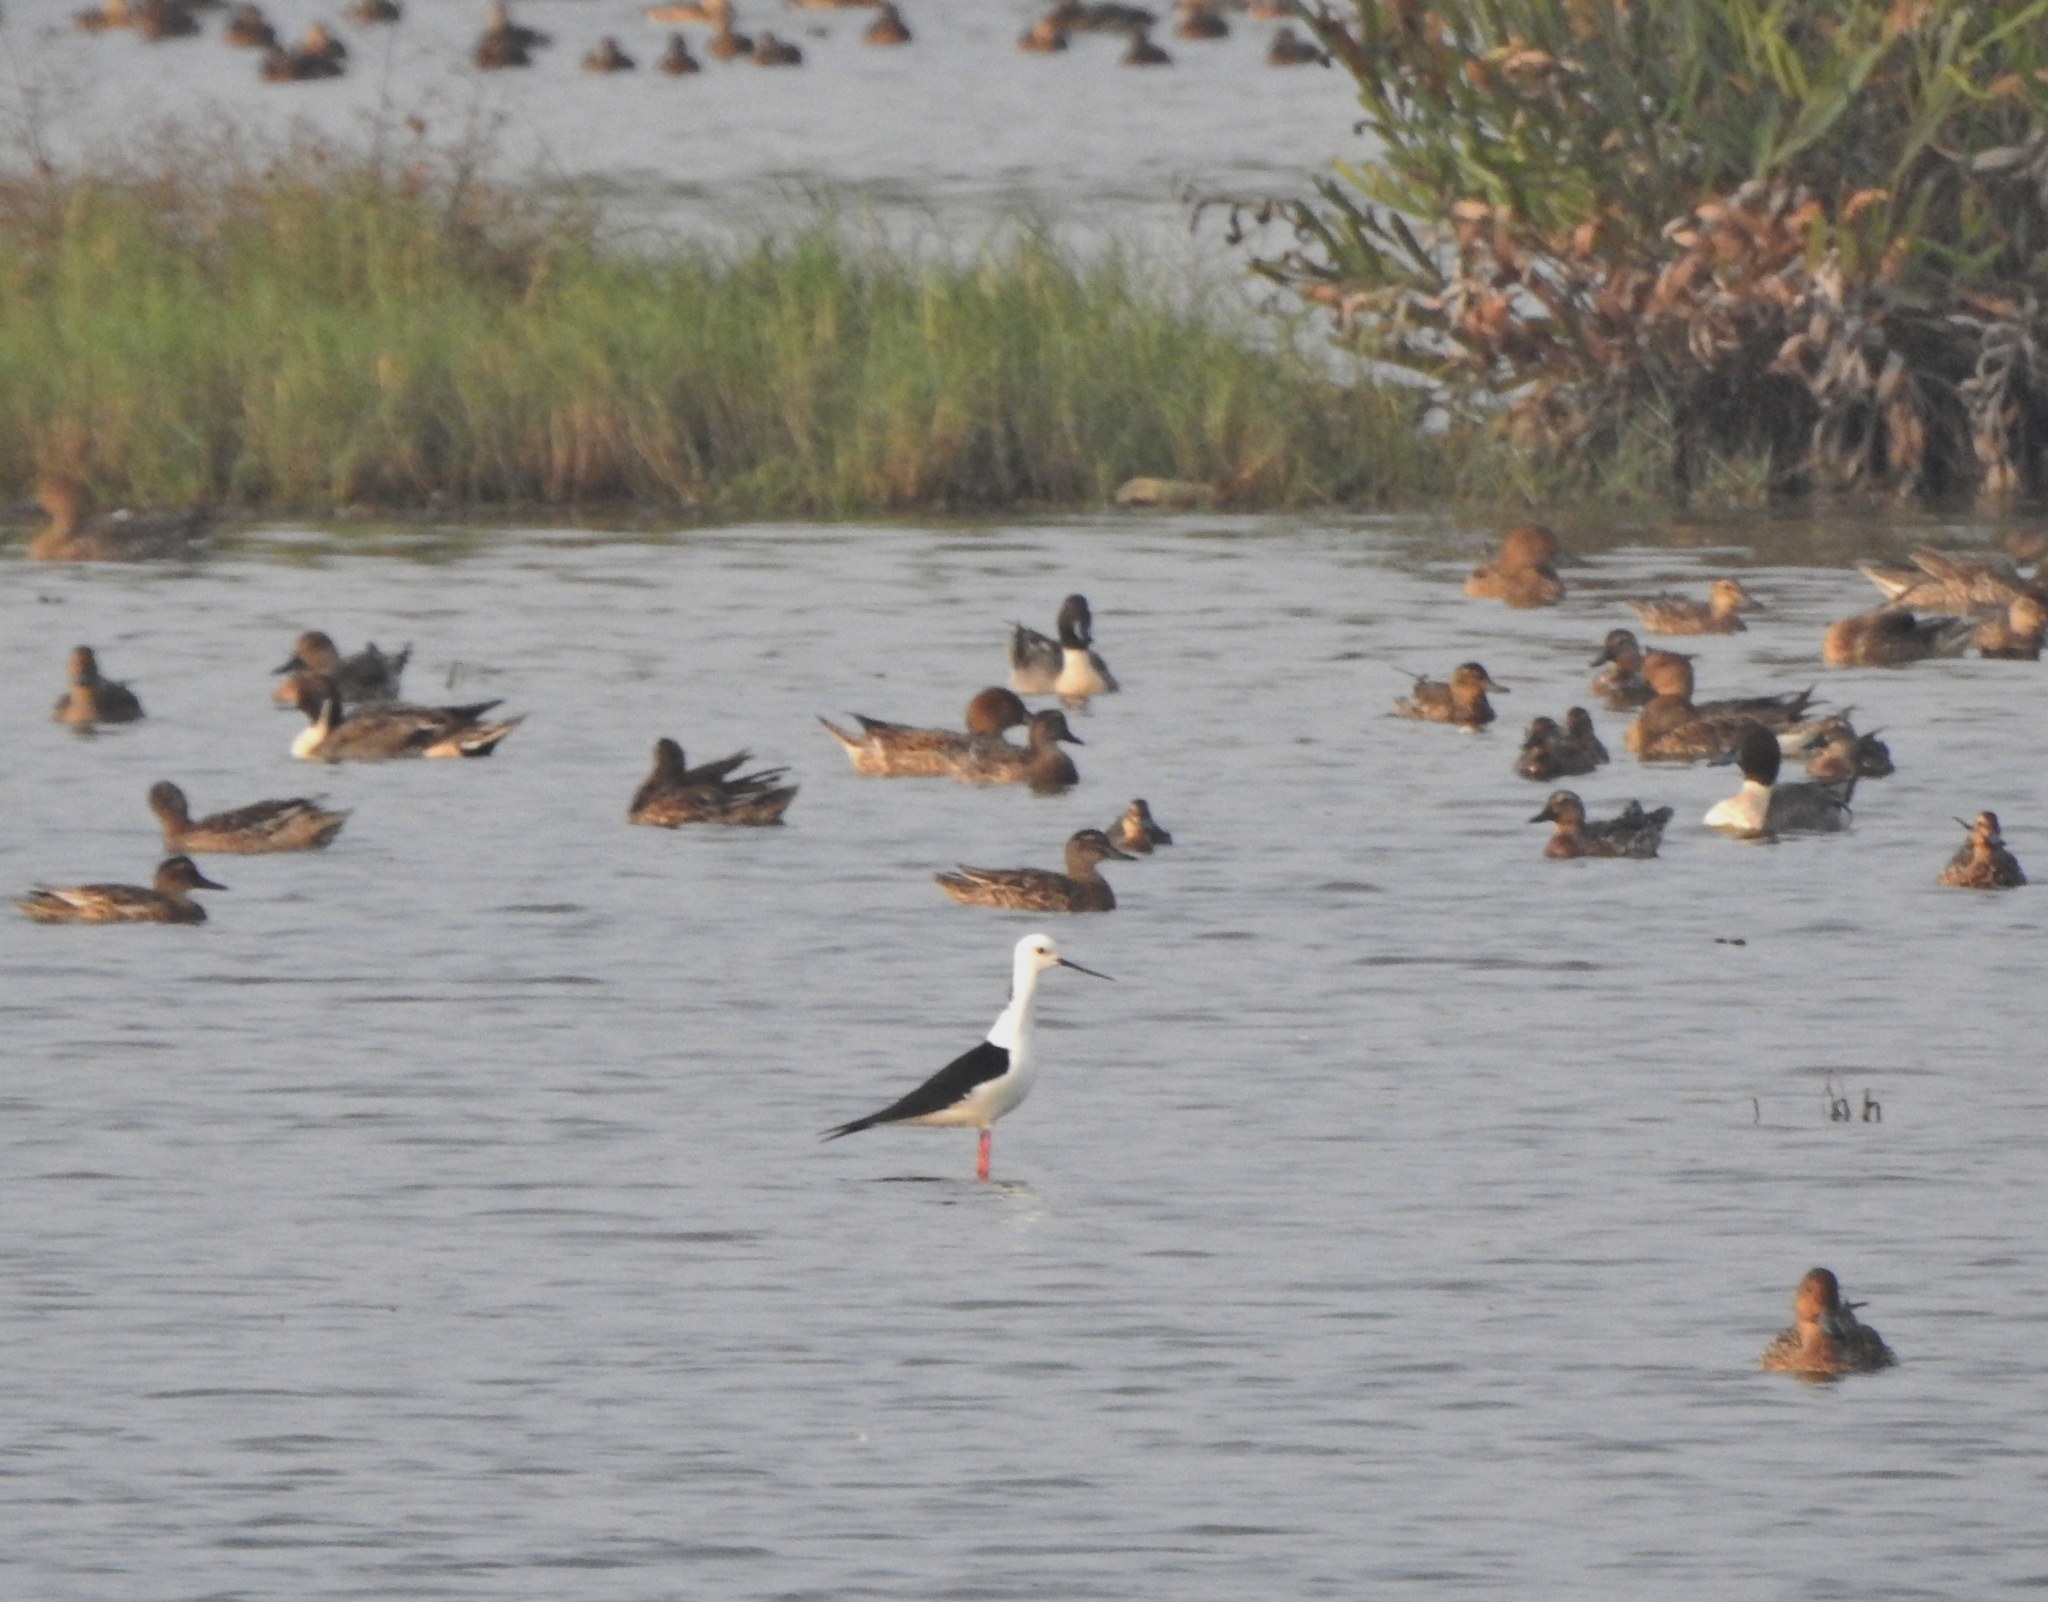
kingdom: Animalia
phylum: Chordata
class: Aves
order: Charadriiformes
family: Recurvirostridae
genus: Himantopus
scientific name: Himantopus himantopus
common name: Black-winged stilt
